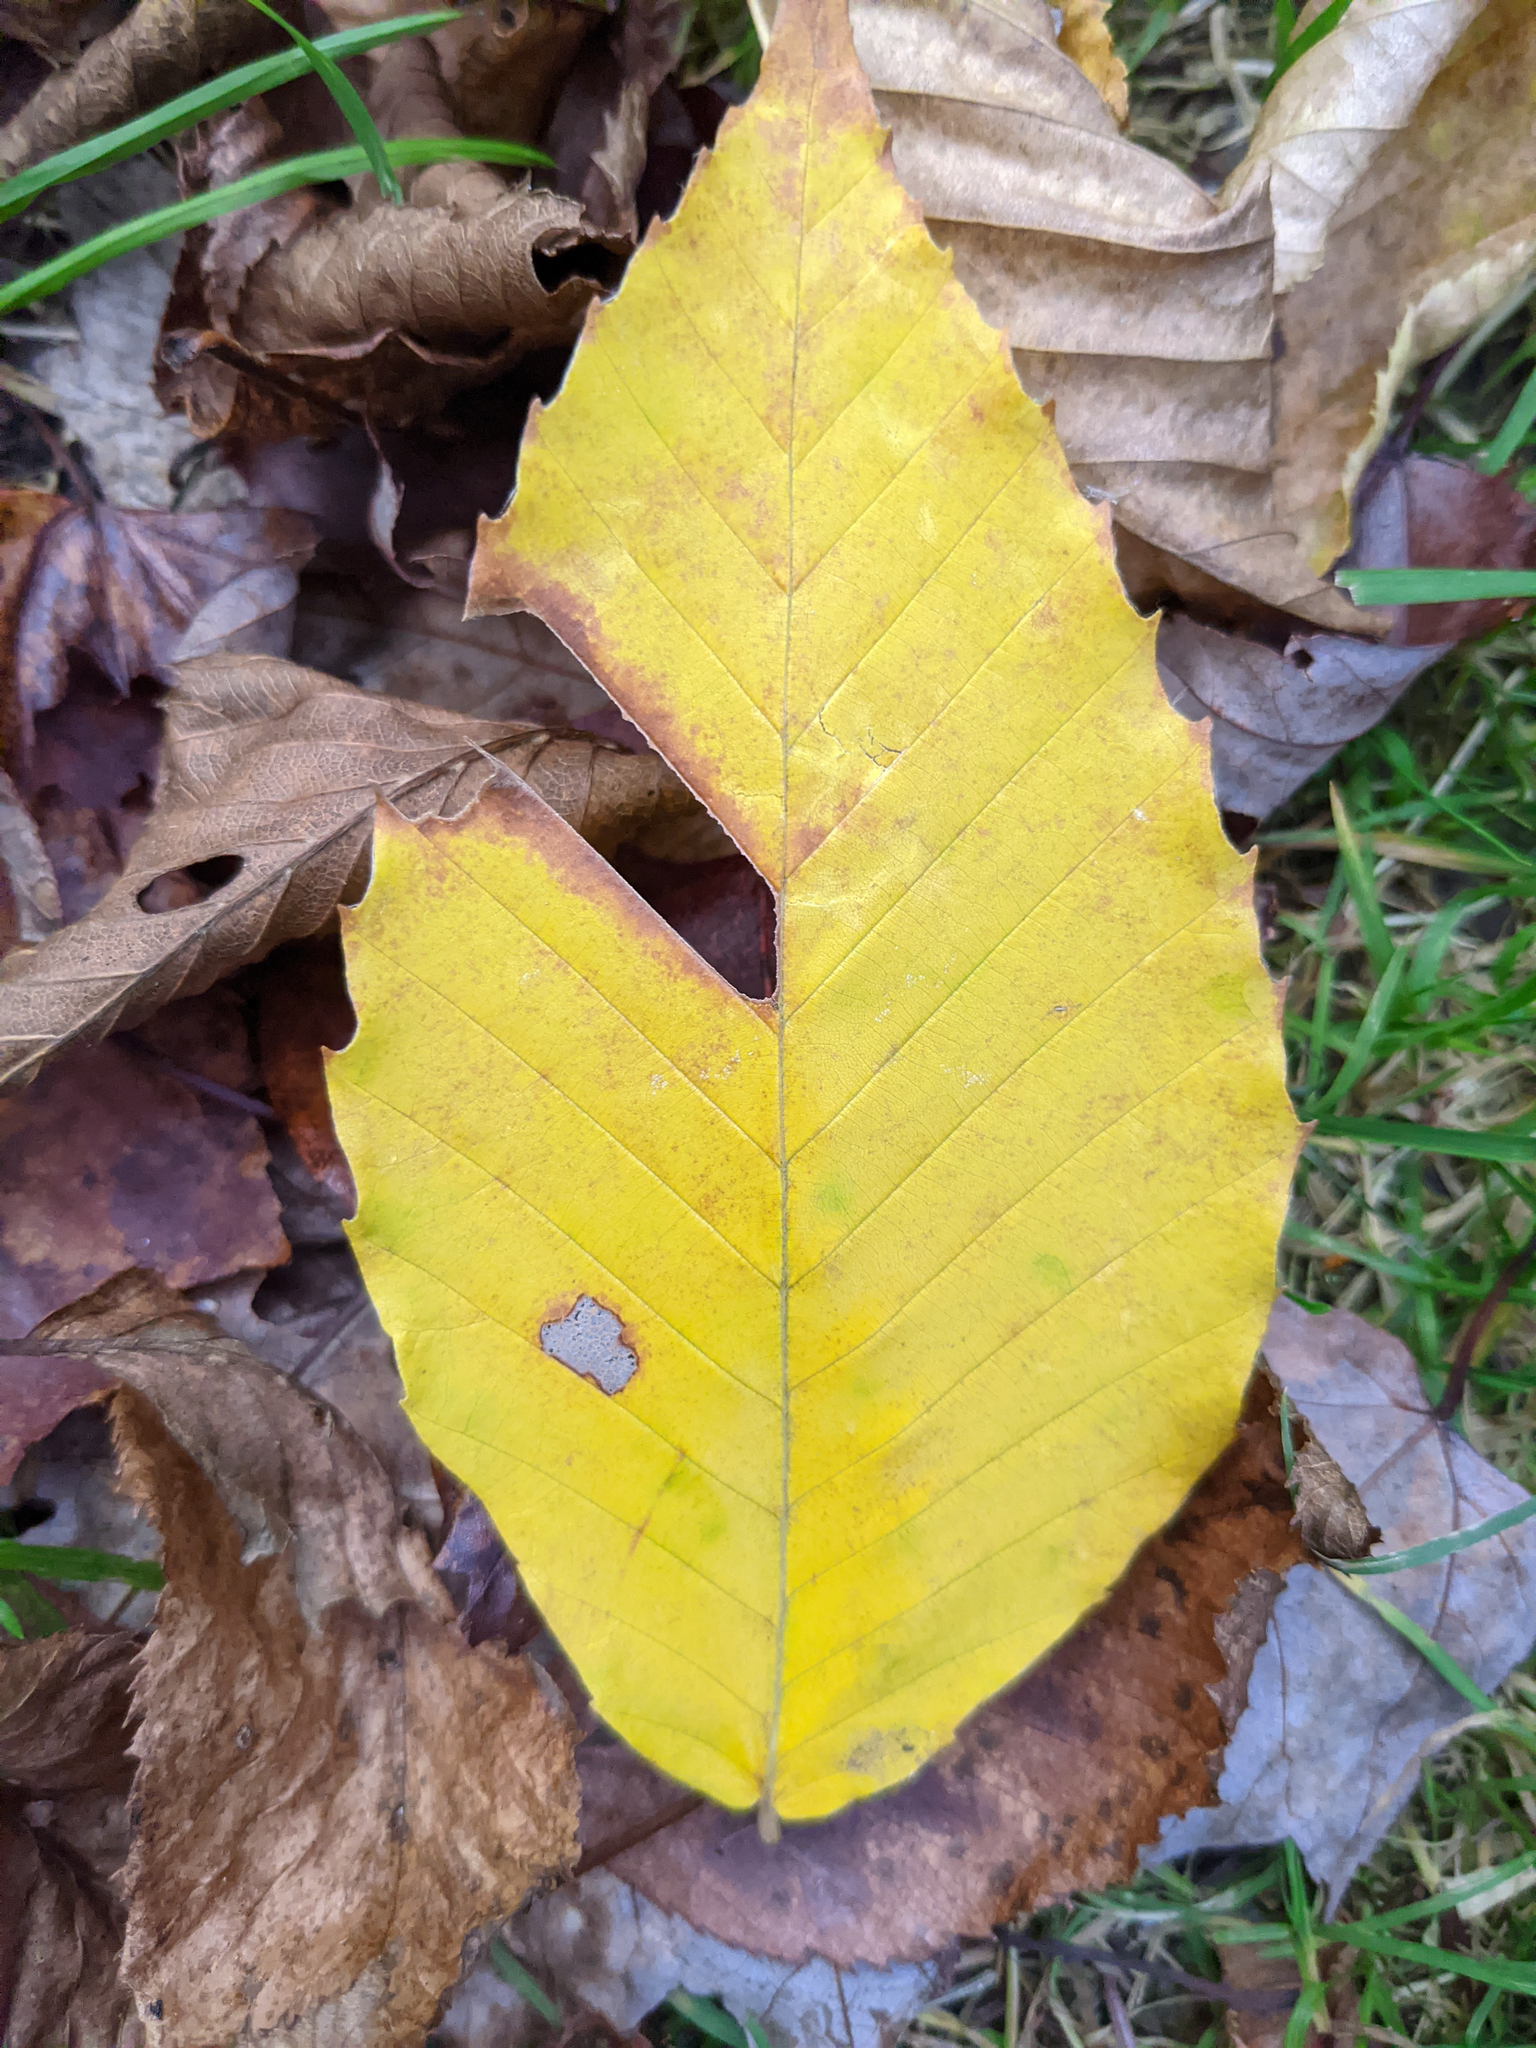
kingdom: Plantae
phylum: Tracheophyta
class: Magnoliopsida
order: Fagales
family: Fagaceae
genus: Fagus
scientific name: Fagus grandifolia
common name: American beech
